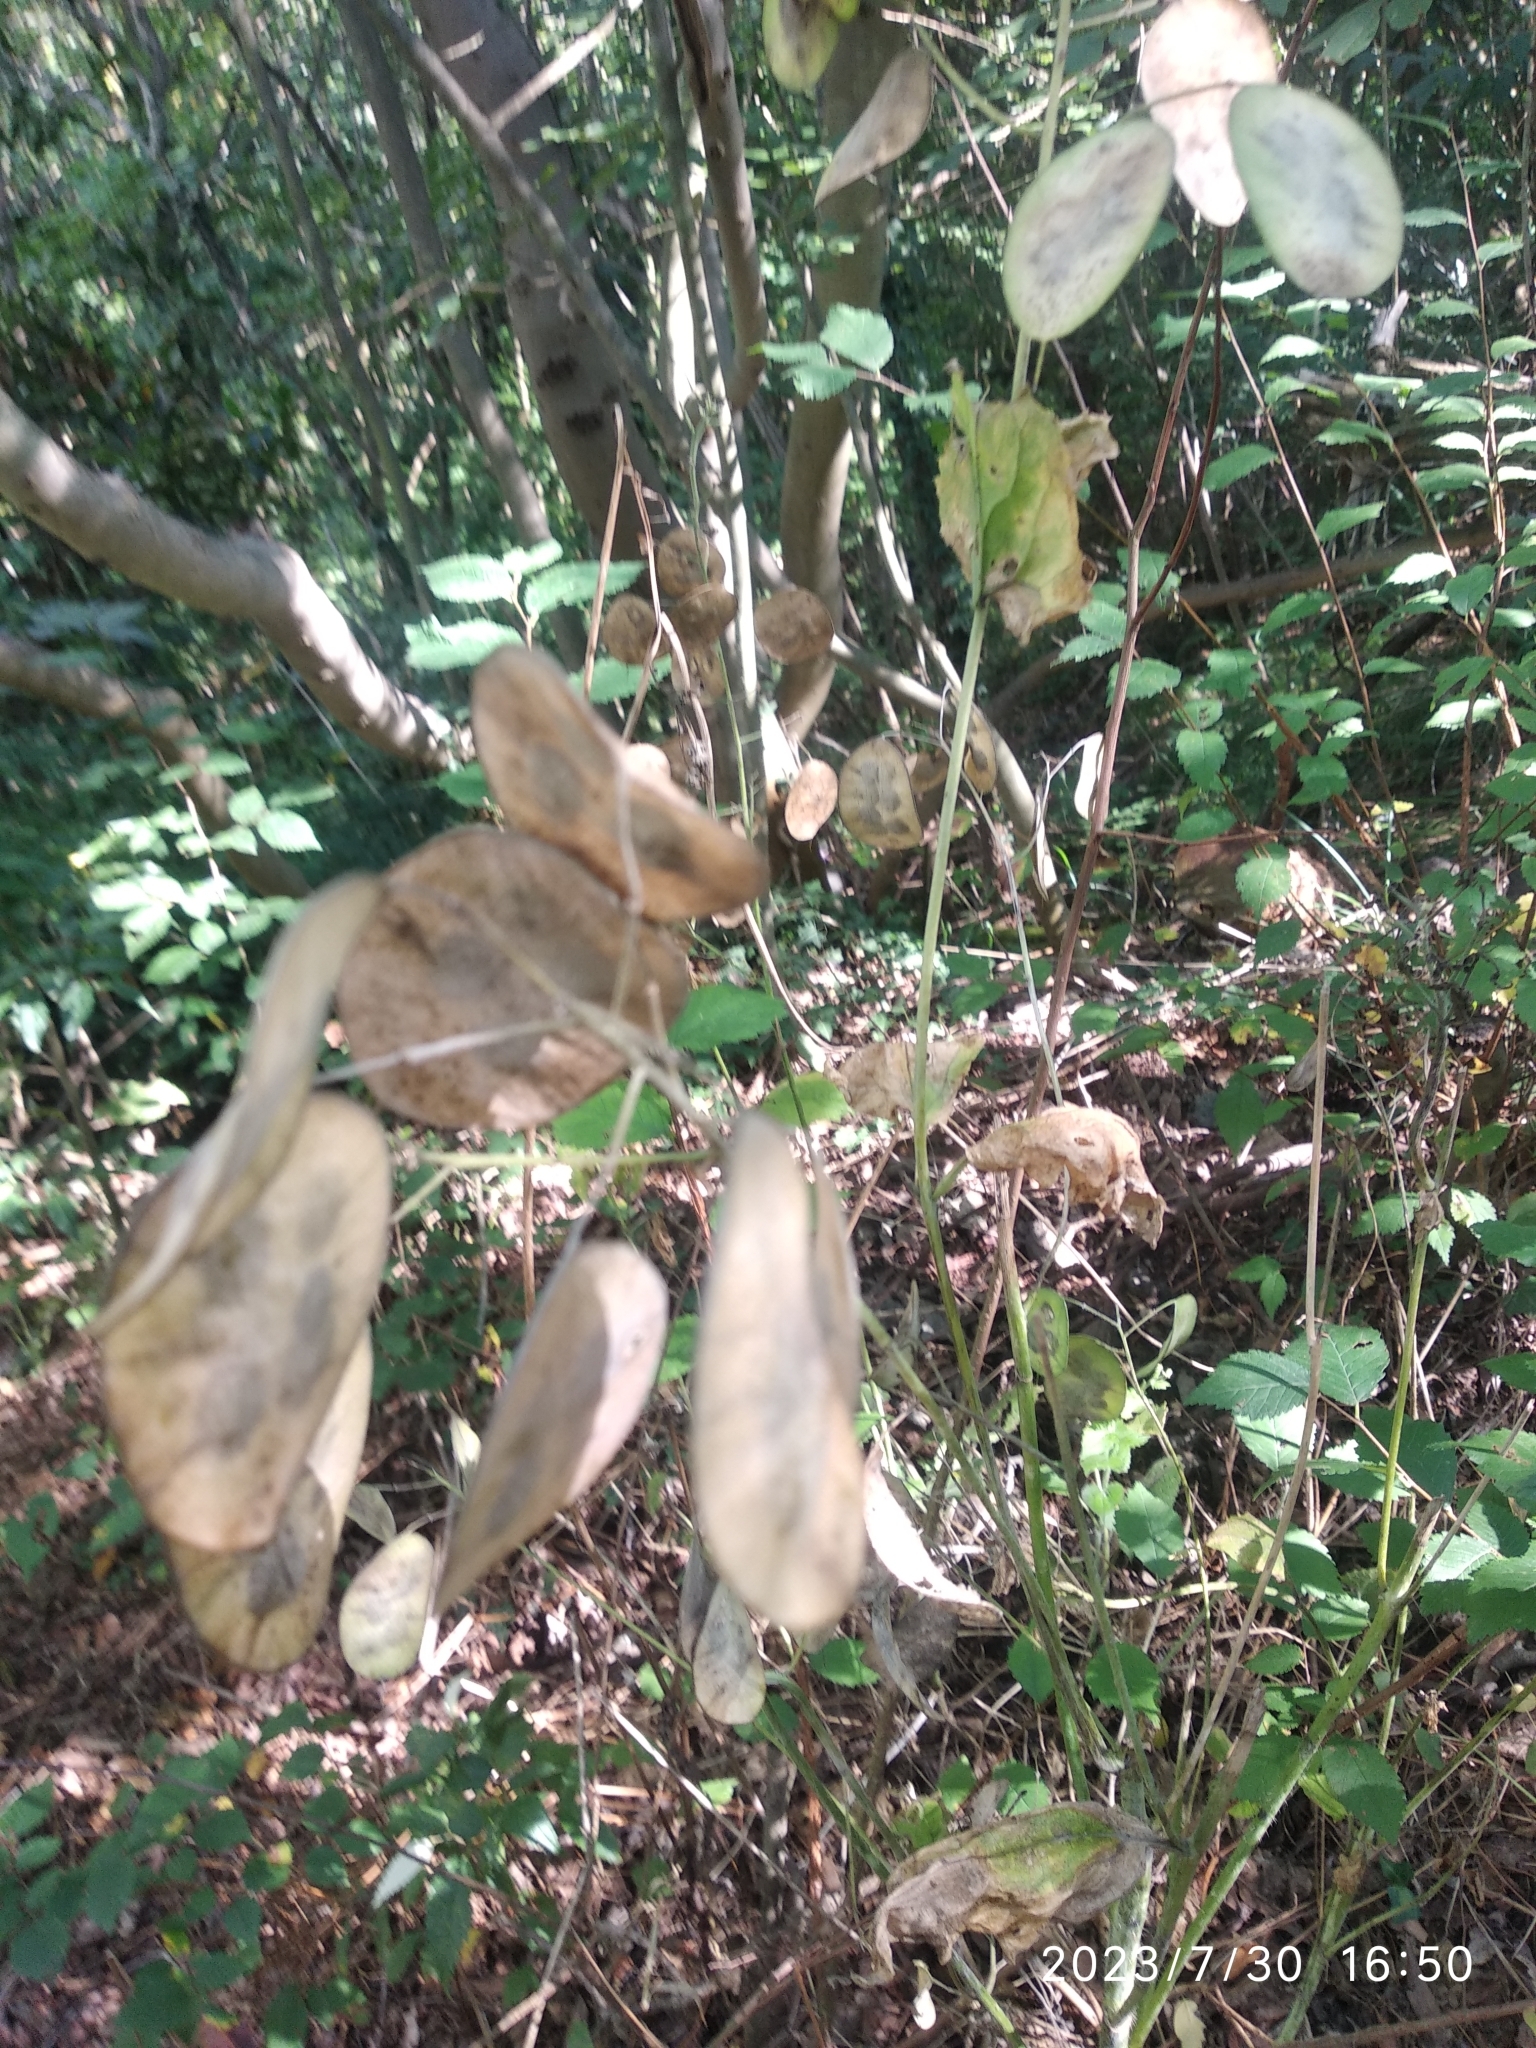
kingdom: Plantae
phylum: Tracheophyta
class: Magnoliopsida
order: Brassicales
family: Brassicaceae
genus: Lunaria
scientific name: Lunaria annua
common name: Honesty
